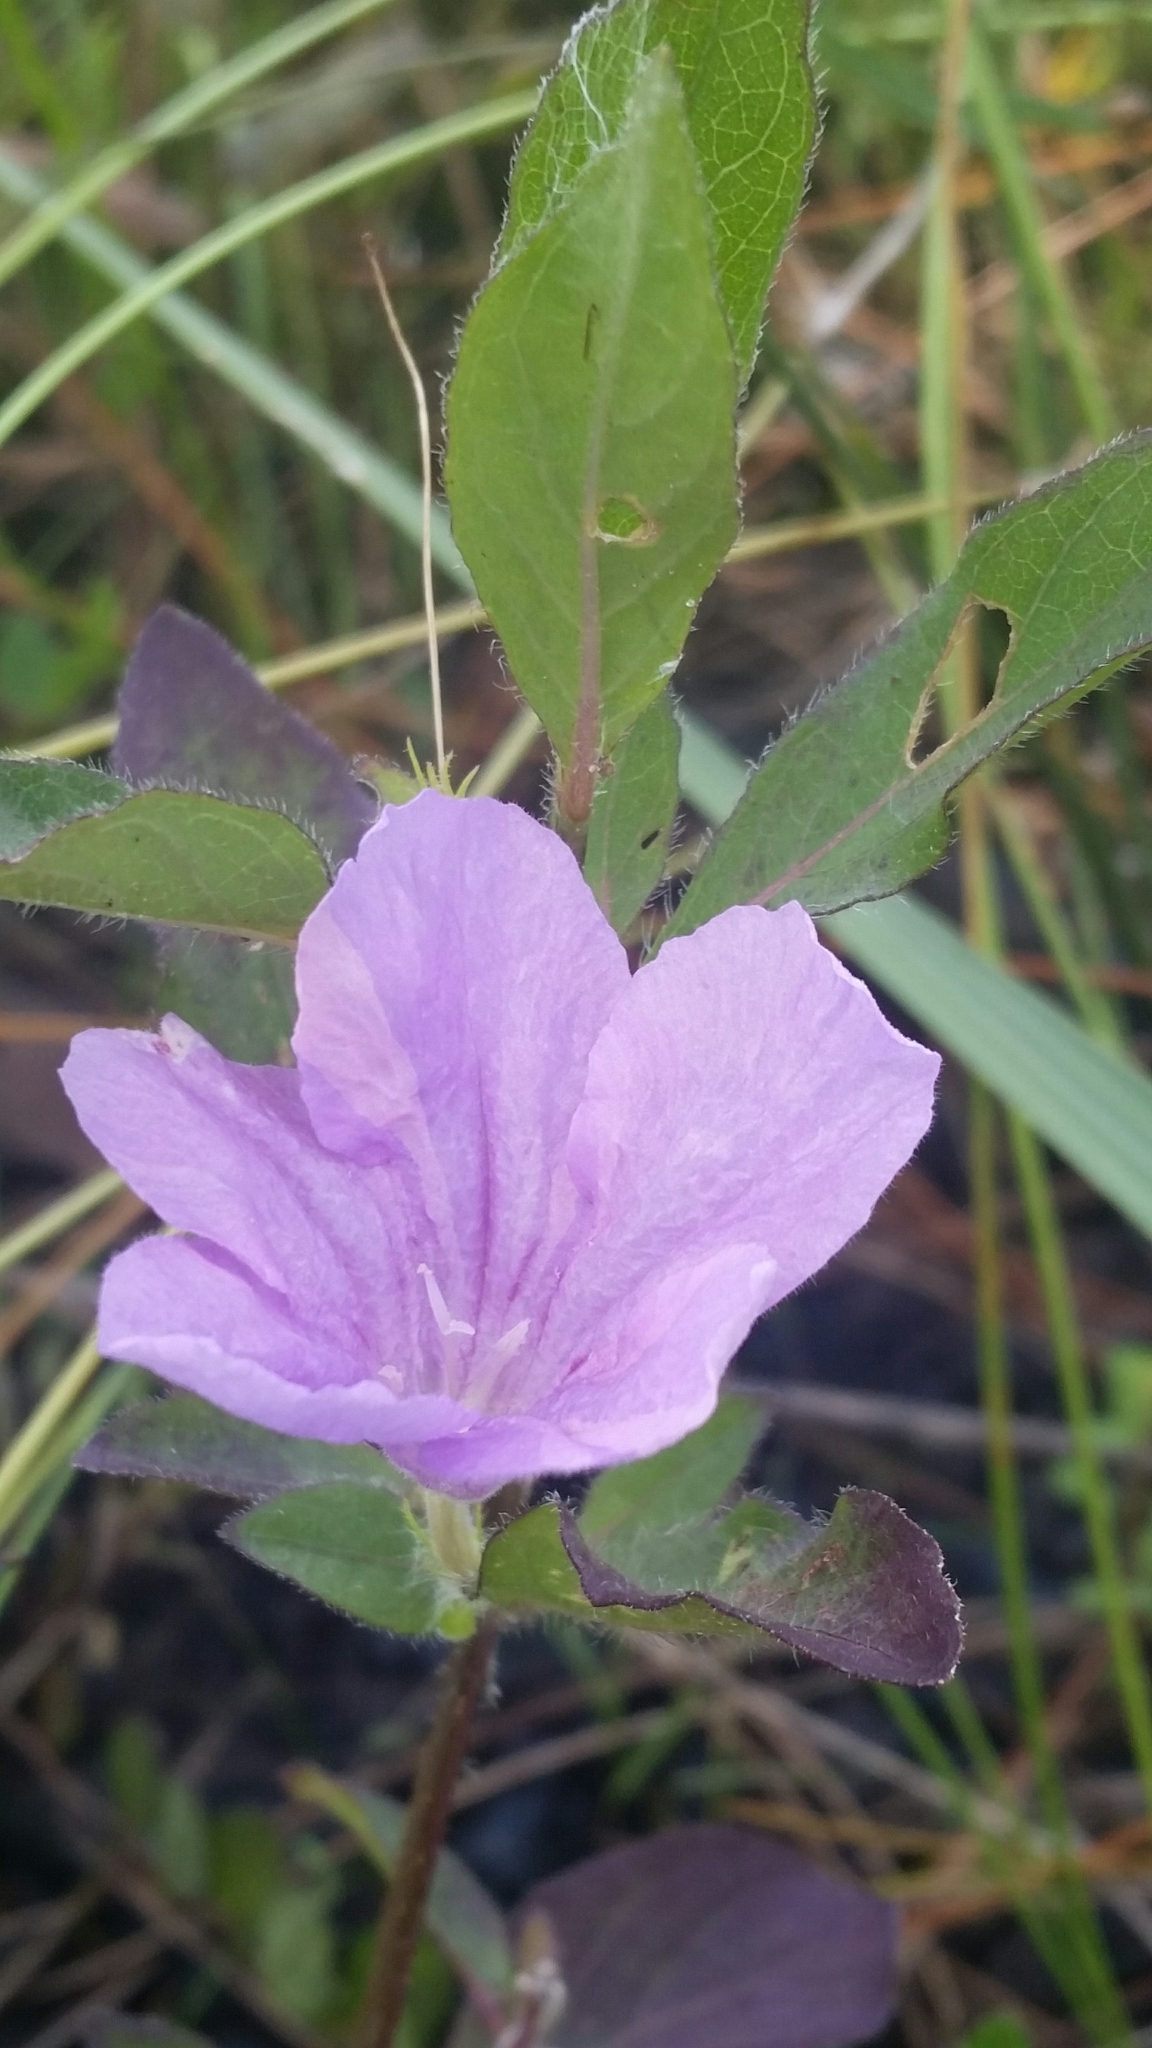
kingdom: Plantae
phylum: Tracheophyta
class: Magnoliopsida
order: Lamiales
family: Acanthaceae
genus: Ruellia
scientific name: Ruellia caroliniensis
